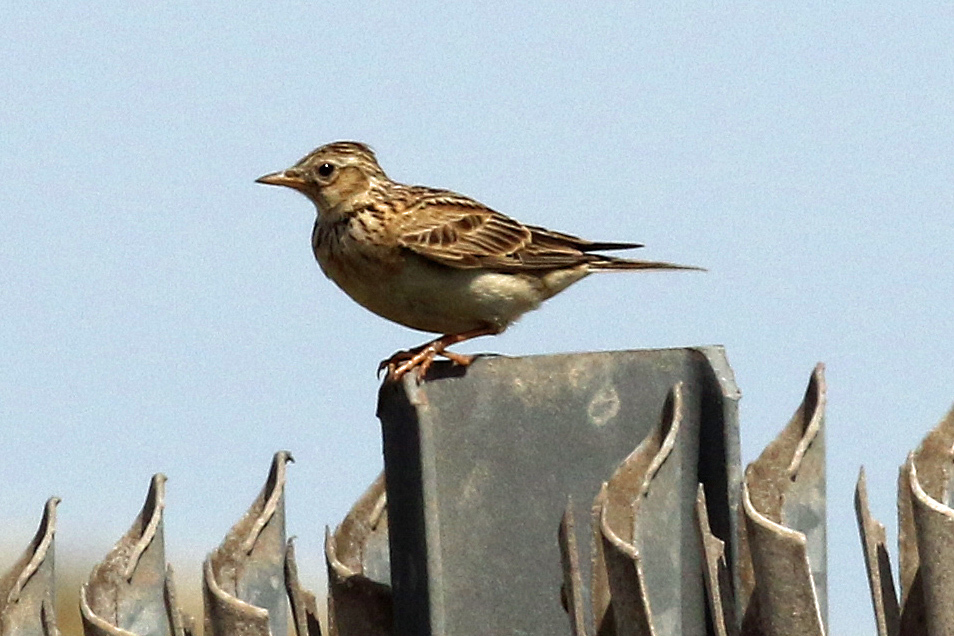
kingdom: Animalia
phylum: Chordata
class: Aves
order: Passeriformes
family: Alaudidae
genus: Alauda
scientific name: Alauda arvensis
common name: Eurasian skylark
